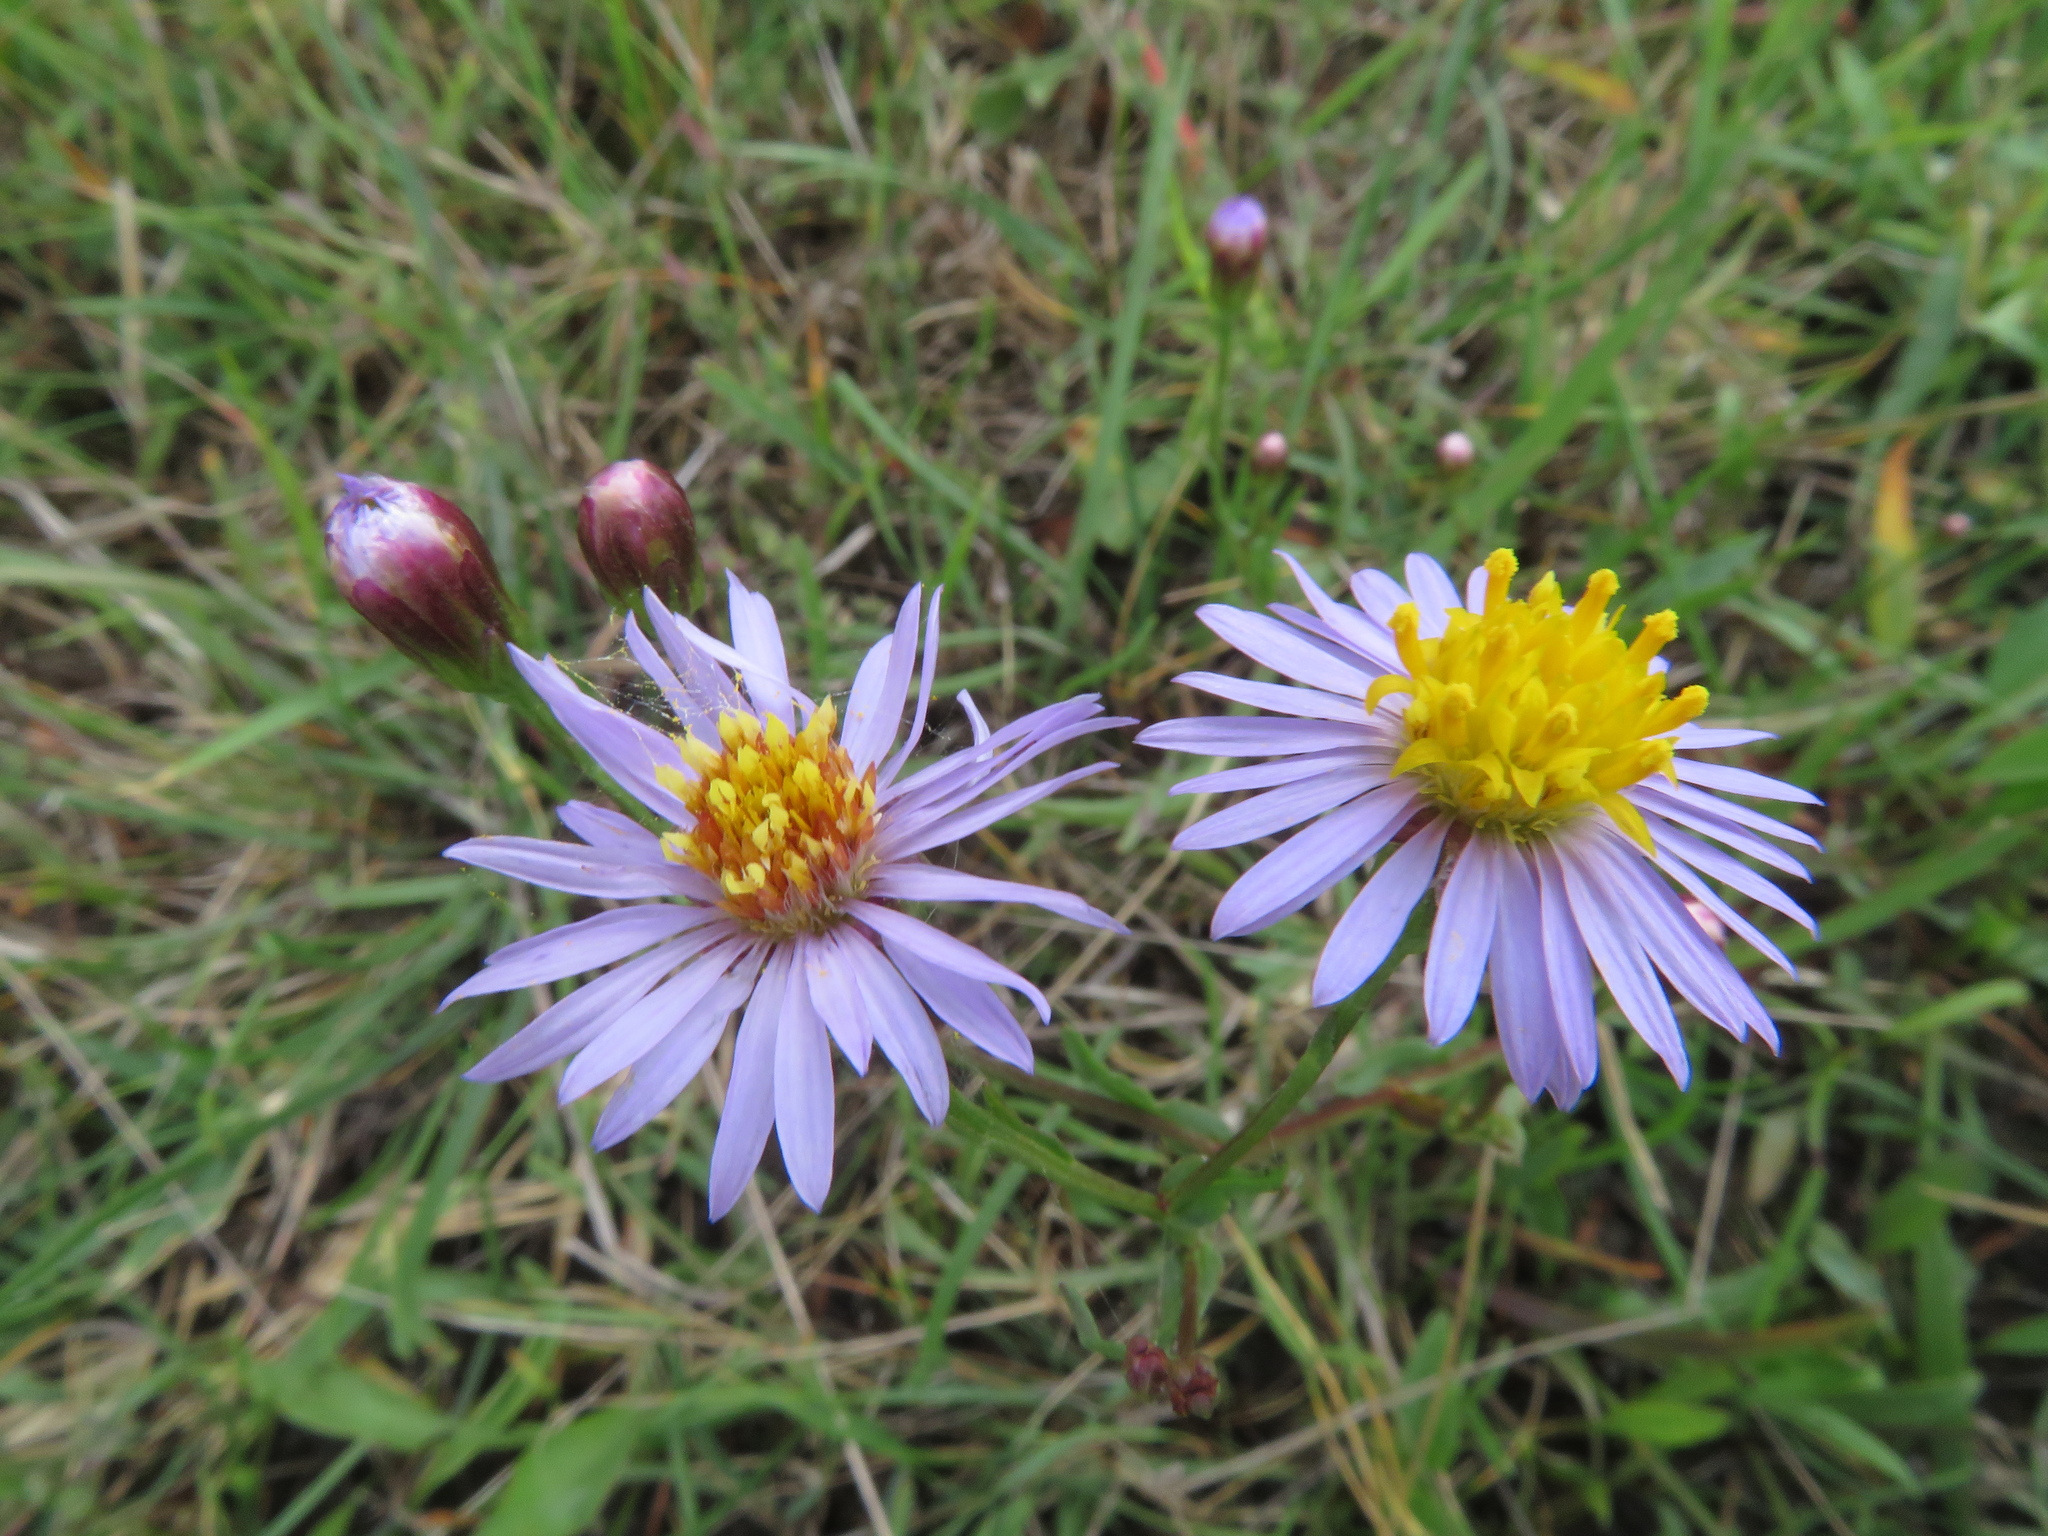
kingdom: Plantae
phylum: Tracheophyta
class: Magnoliopsida
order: Asterales
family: Asteraceae
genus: Tripolium
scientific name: Tripolium pannonicum
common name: Sea aster
